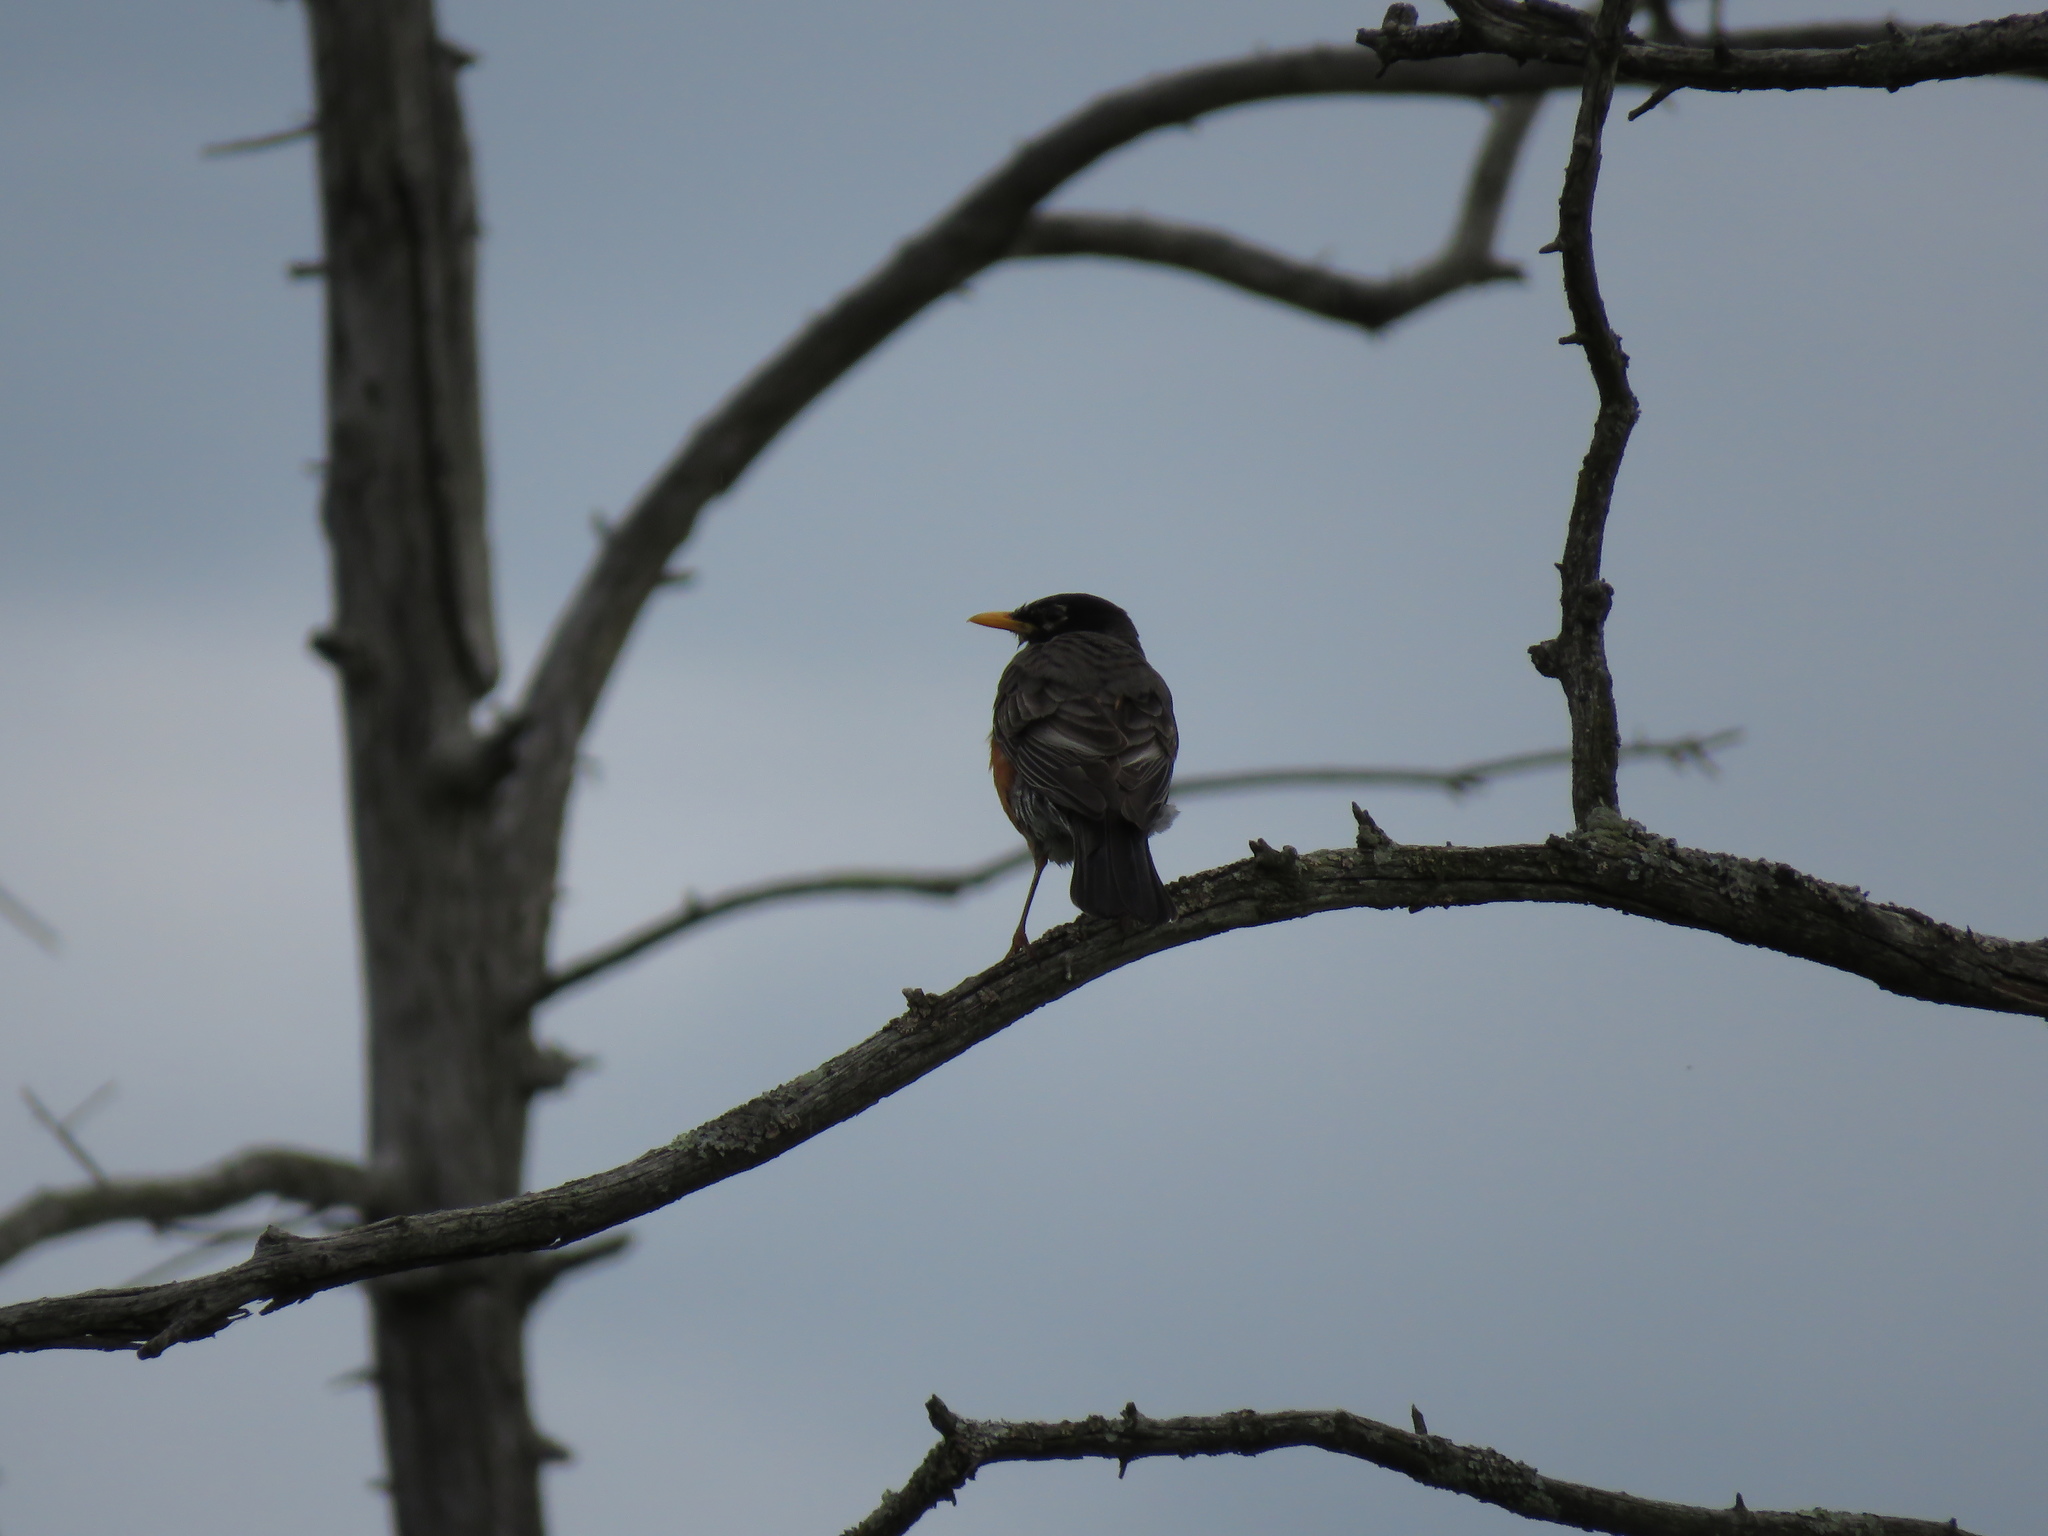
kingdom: Animalia
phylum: Chordata
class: Aves
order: Passeriformes
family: Turdidae
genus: Turdus
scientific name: Turdus migratorius
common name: American robin
